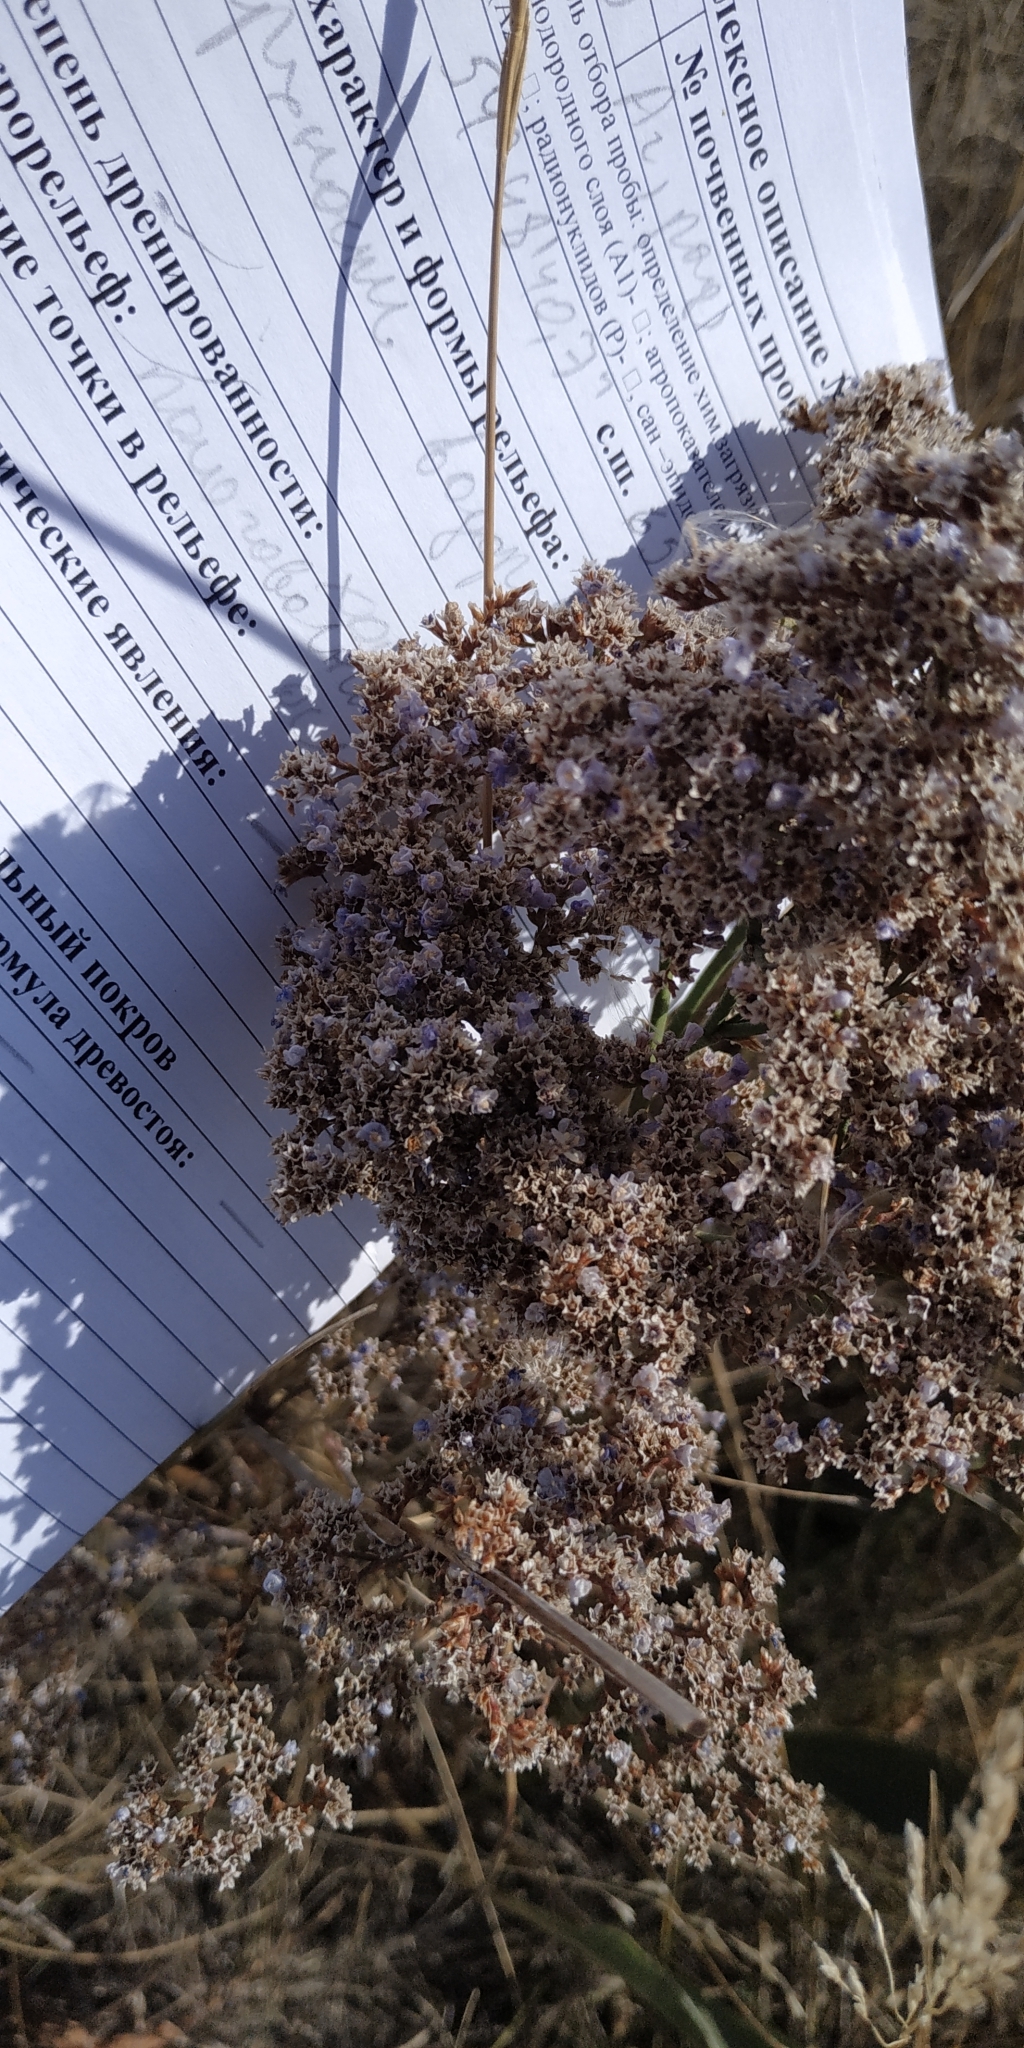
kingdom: Plantae
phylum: Tracheophyta
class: Magnoliopsida
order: Caryophyllales
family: Plumbaginaceae
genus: Limonium
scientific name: Limonium gmelini
